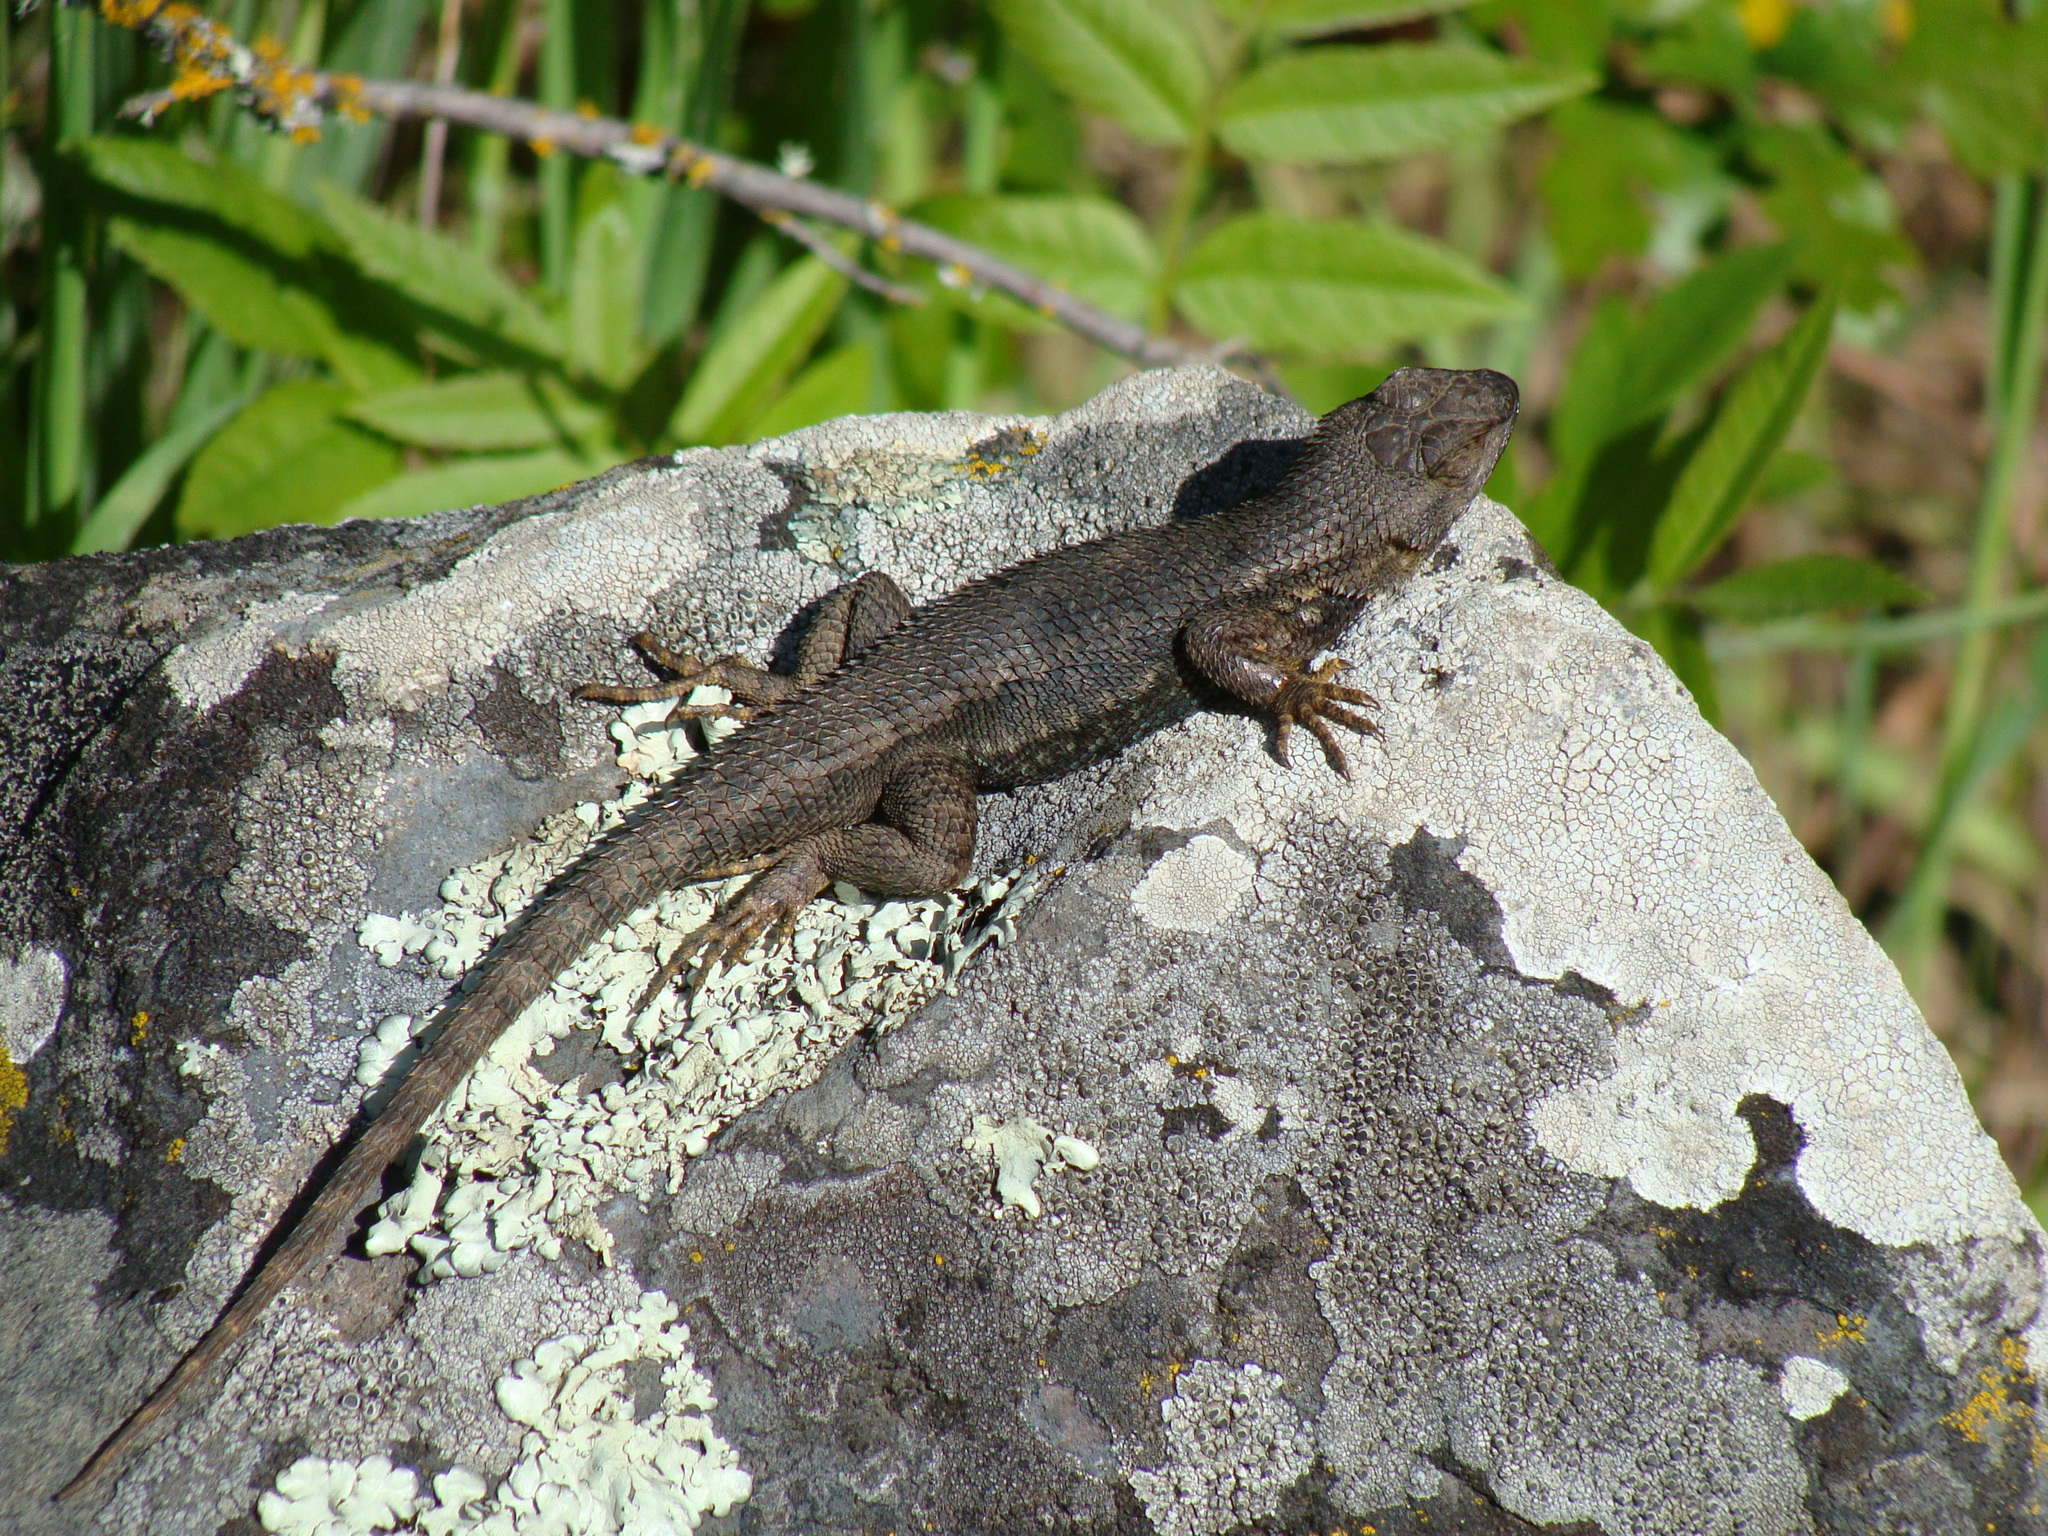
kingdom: Animalia
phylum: Chordata
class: Squamata
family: Phrynosomatidae
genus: Sceloporus
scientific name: Sceloporus occidentalis
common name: Western fence lizard
